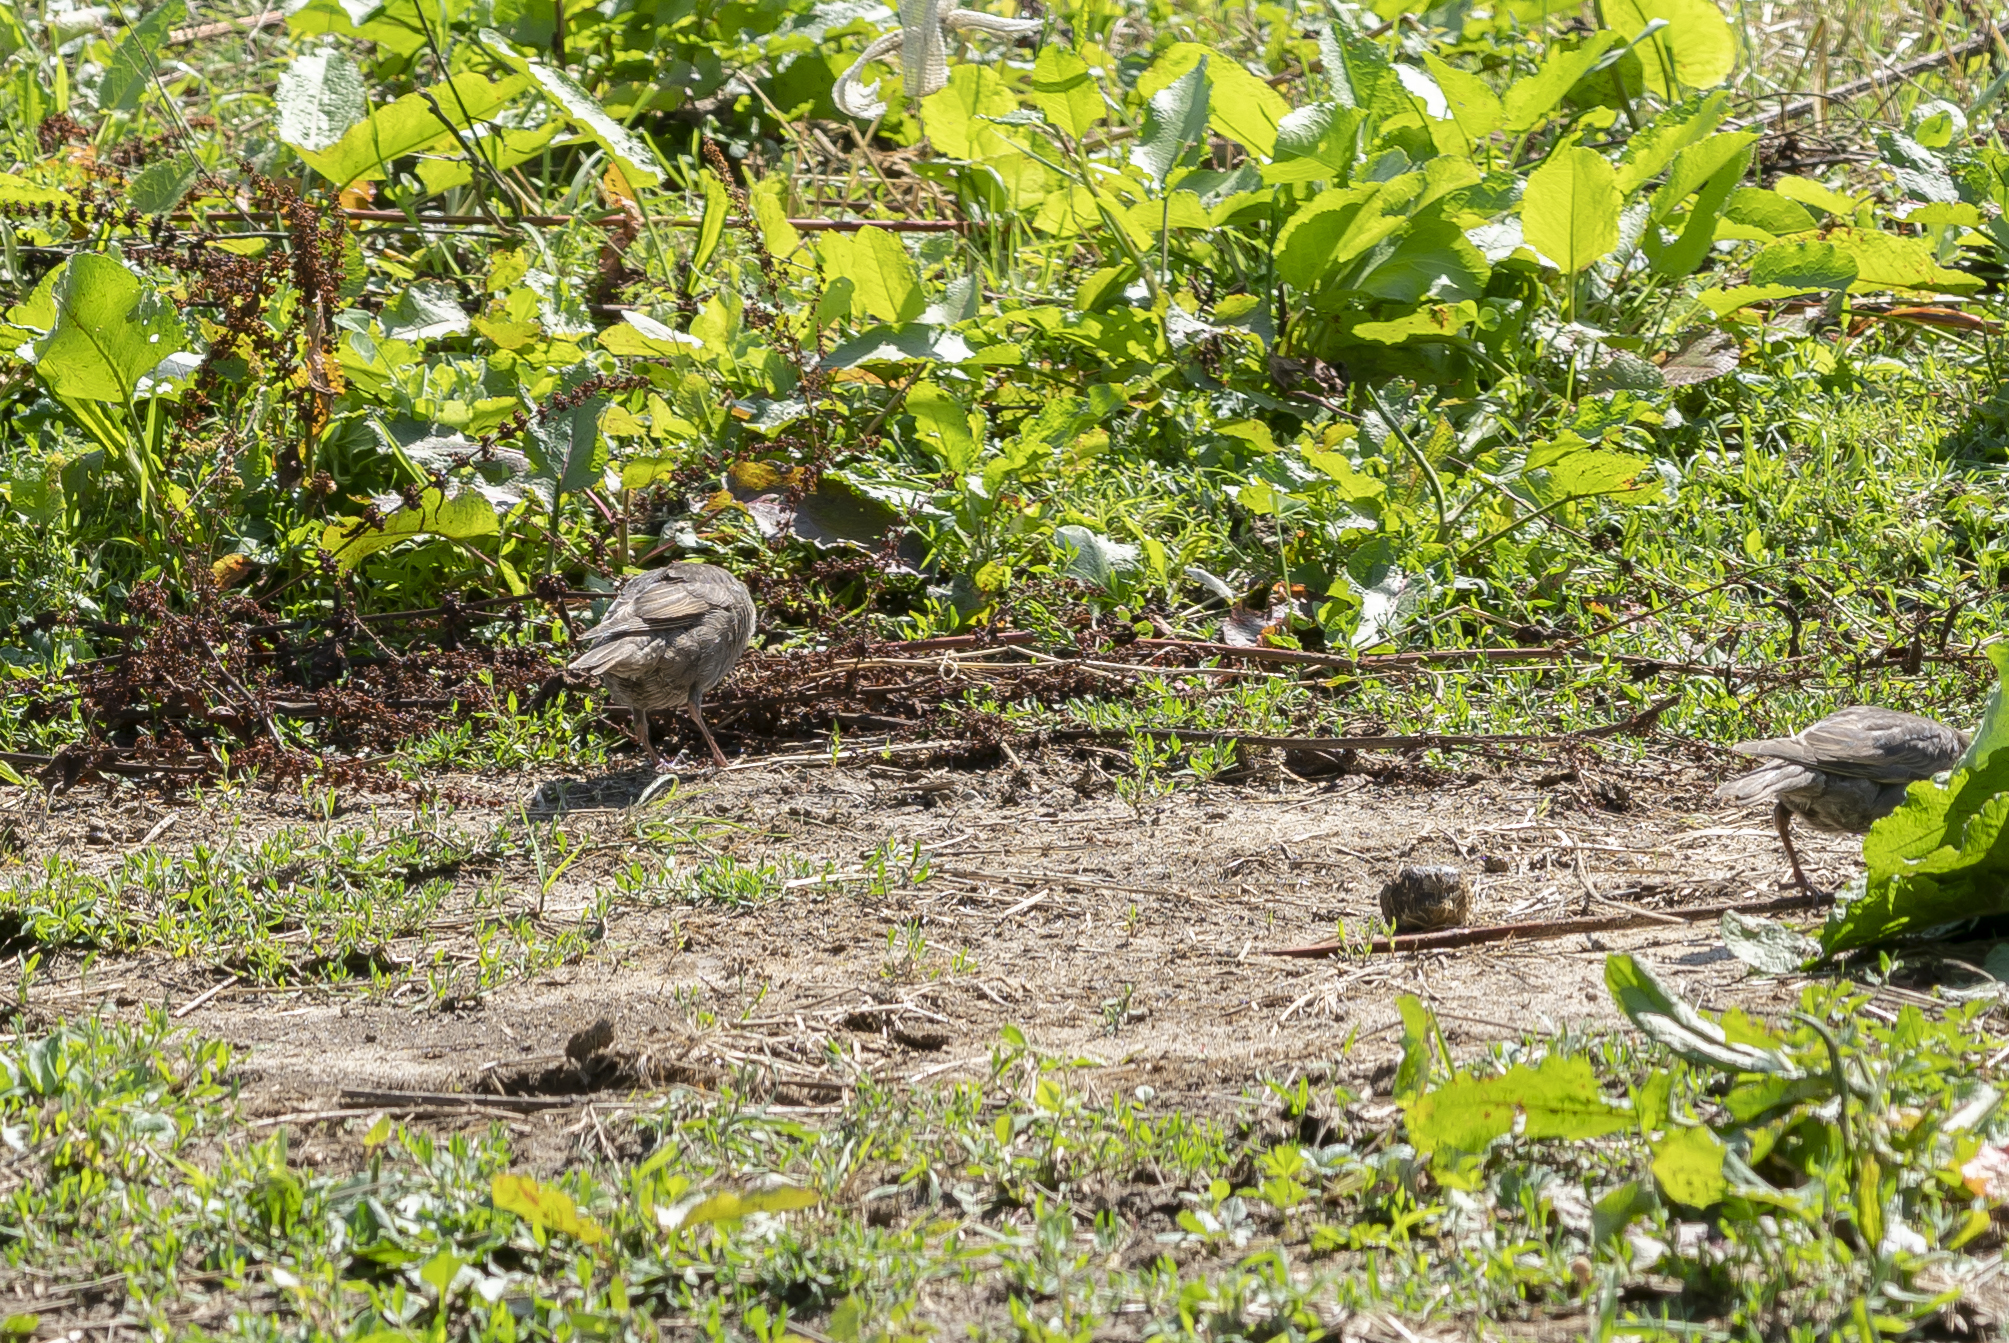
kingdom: Animalia
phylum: Chordata
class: Aves
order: Passeriformes
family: Sturnidae
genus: Sturnus
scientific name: Sturnus vulgaris
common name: Common starling
